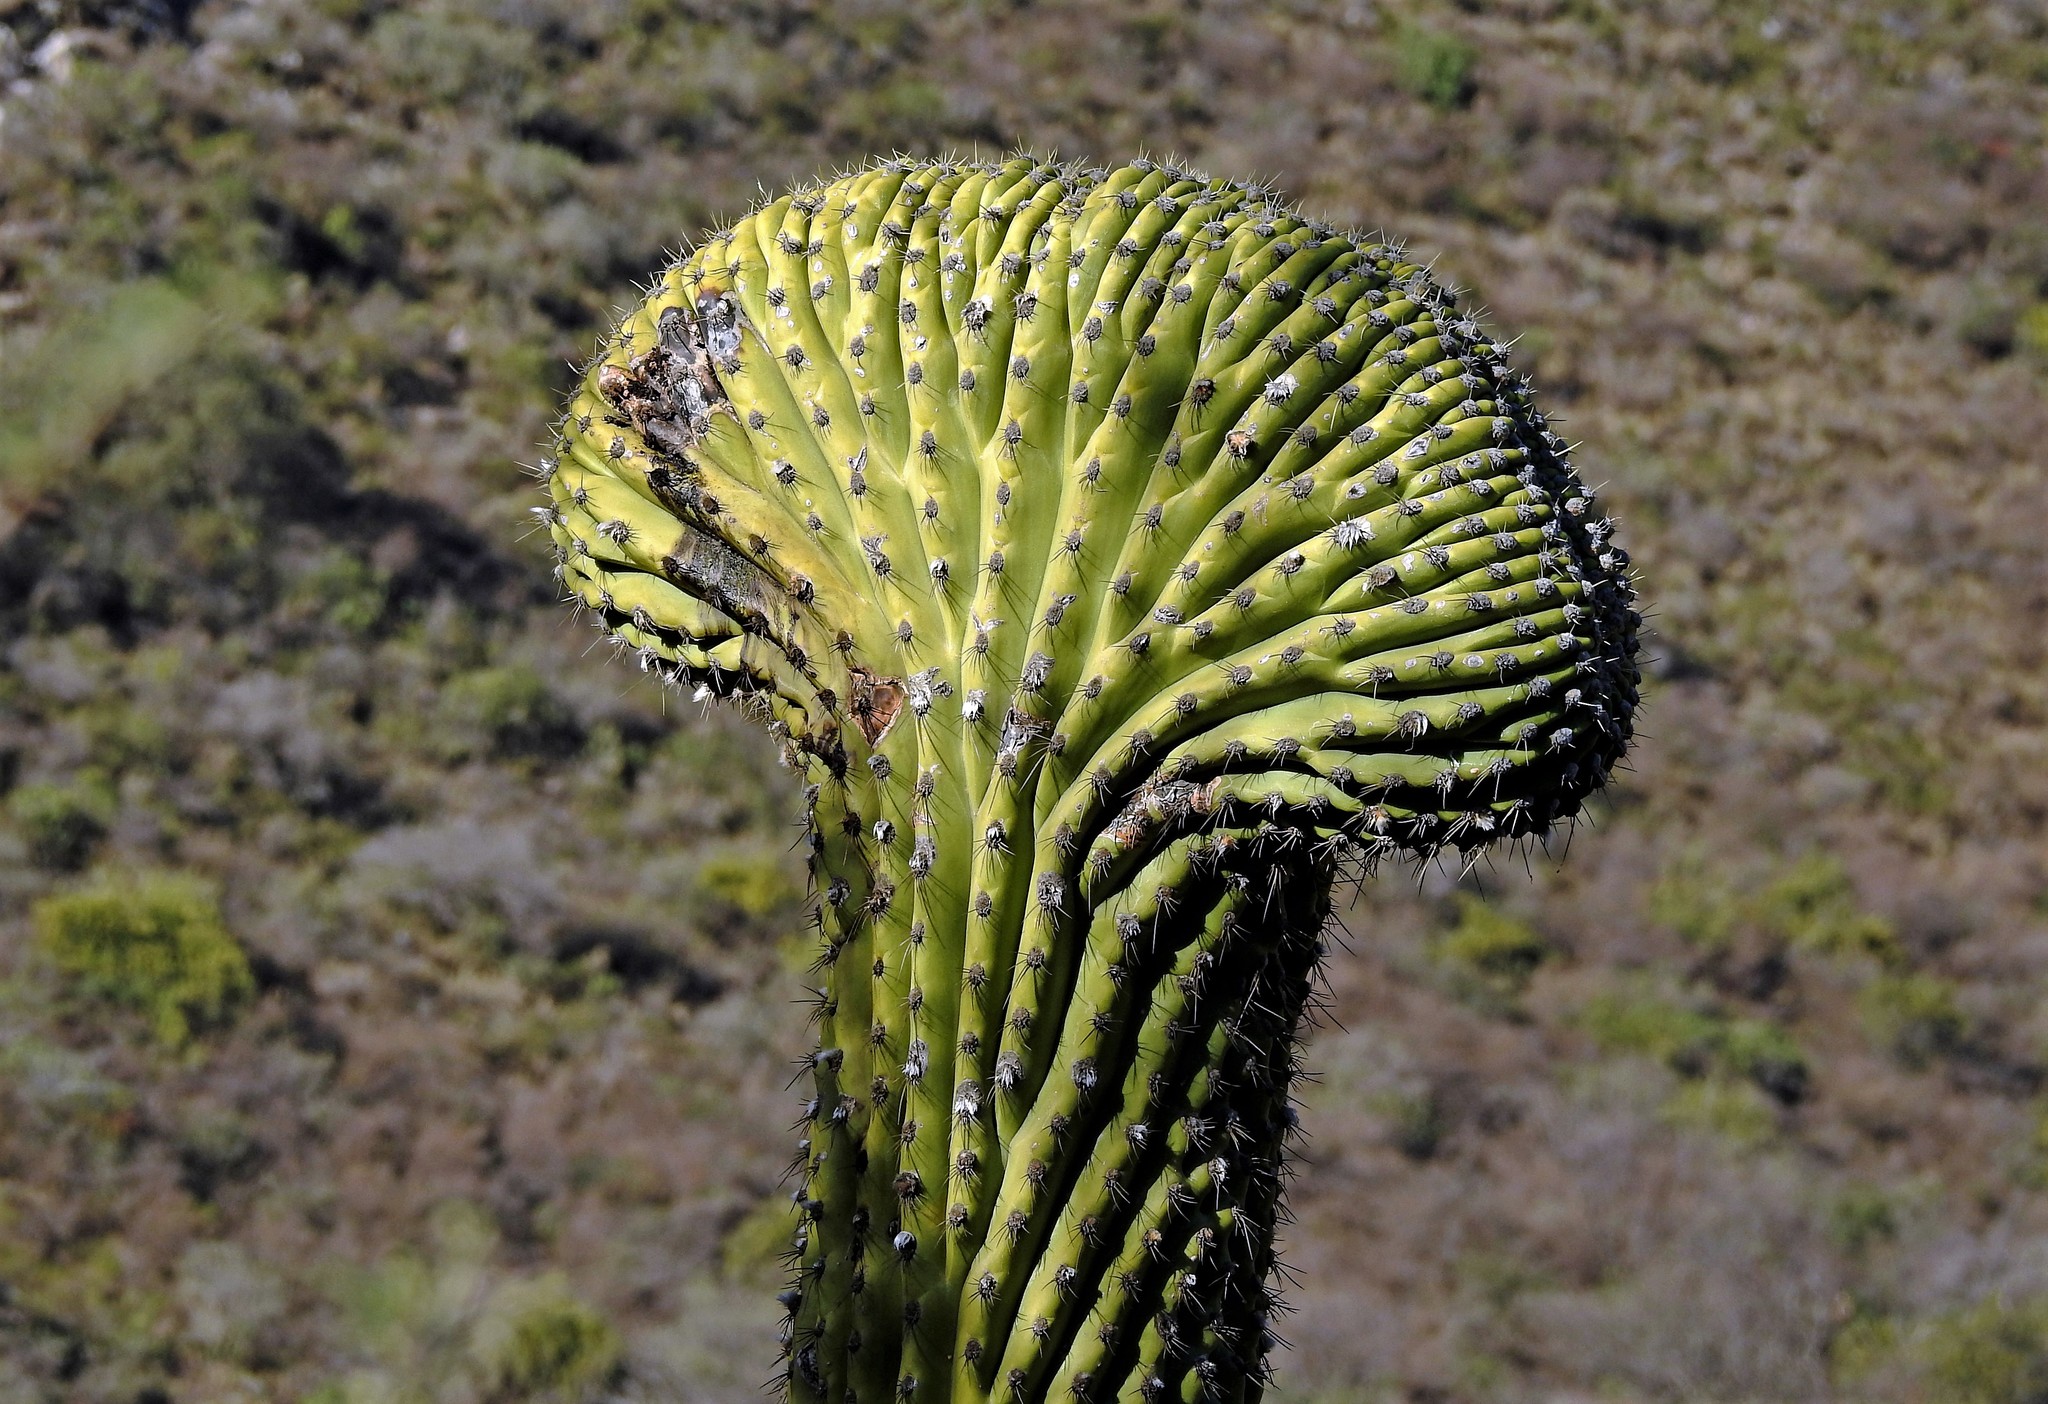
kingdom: Plantae
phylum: Tracheophyta
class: Magnoliopsida
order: Caryophyllales
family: Cactaceae
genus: Leucostele
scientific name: Leucostele terscheckii
